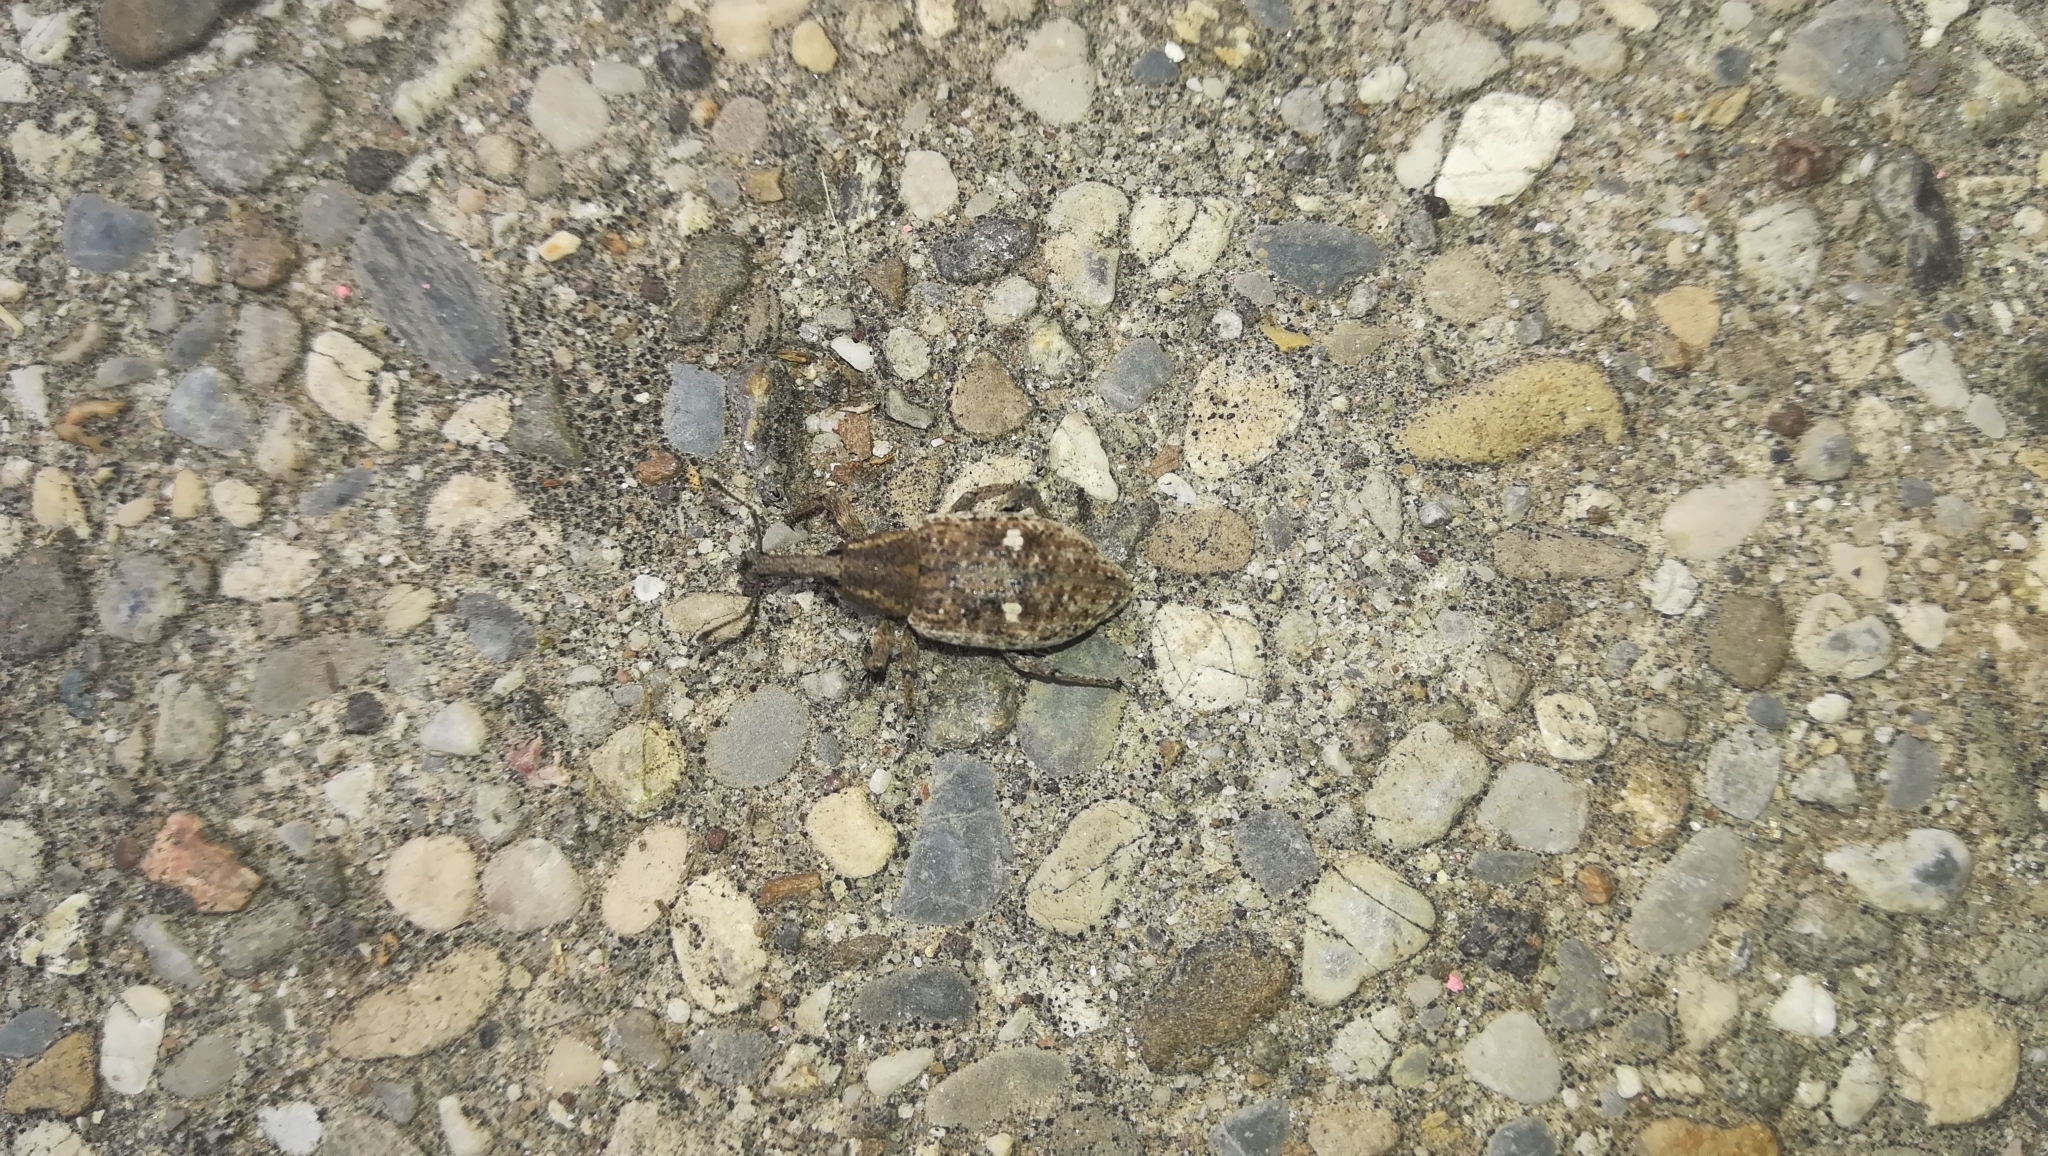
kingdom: Animalia
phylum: Arthropoda
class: Insecta
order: Coleoptera
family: Curculionidae
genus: Lepyrus
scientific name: Lepyrus palustris
